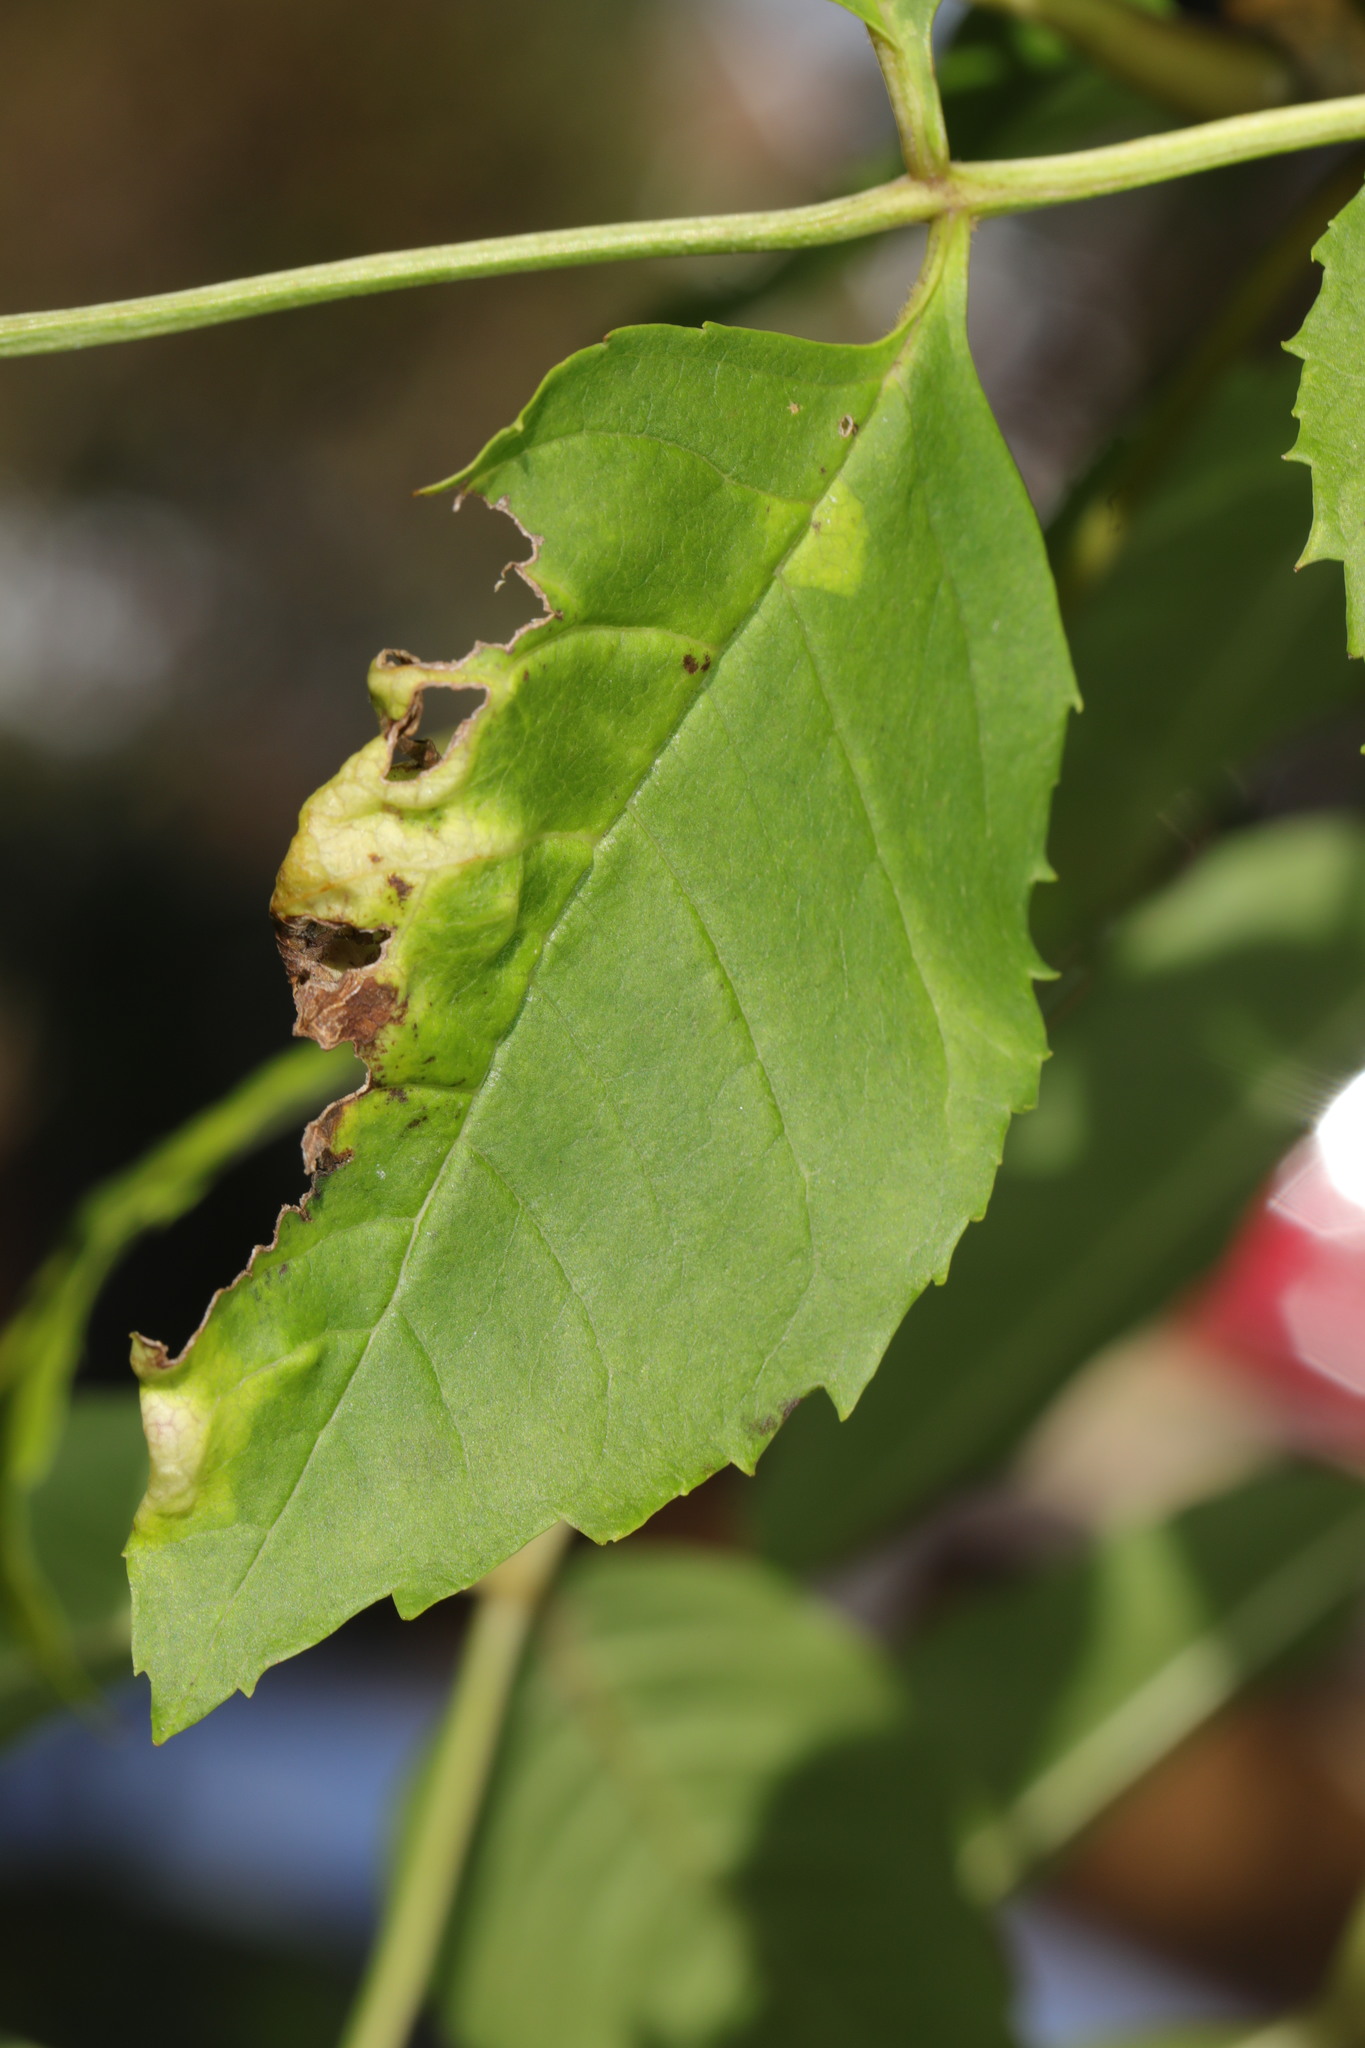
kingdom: Animalia
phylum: Arthropoda
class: Insecta
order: Hemiptera
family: Liviidae
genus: Psyllopsis
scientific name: Psyllopsis fraxini
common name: Jumping plant louse
